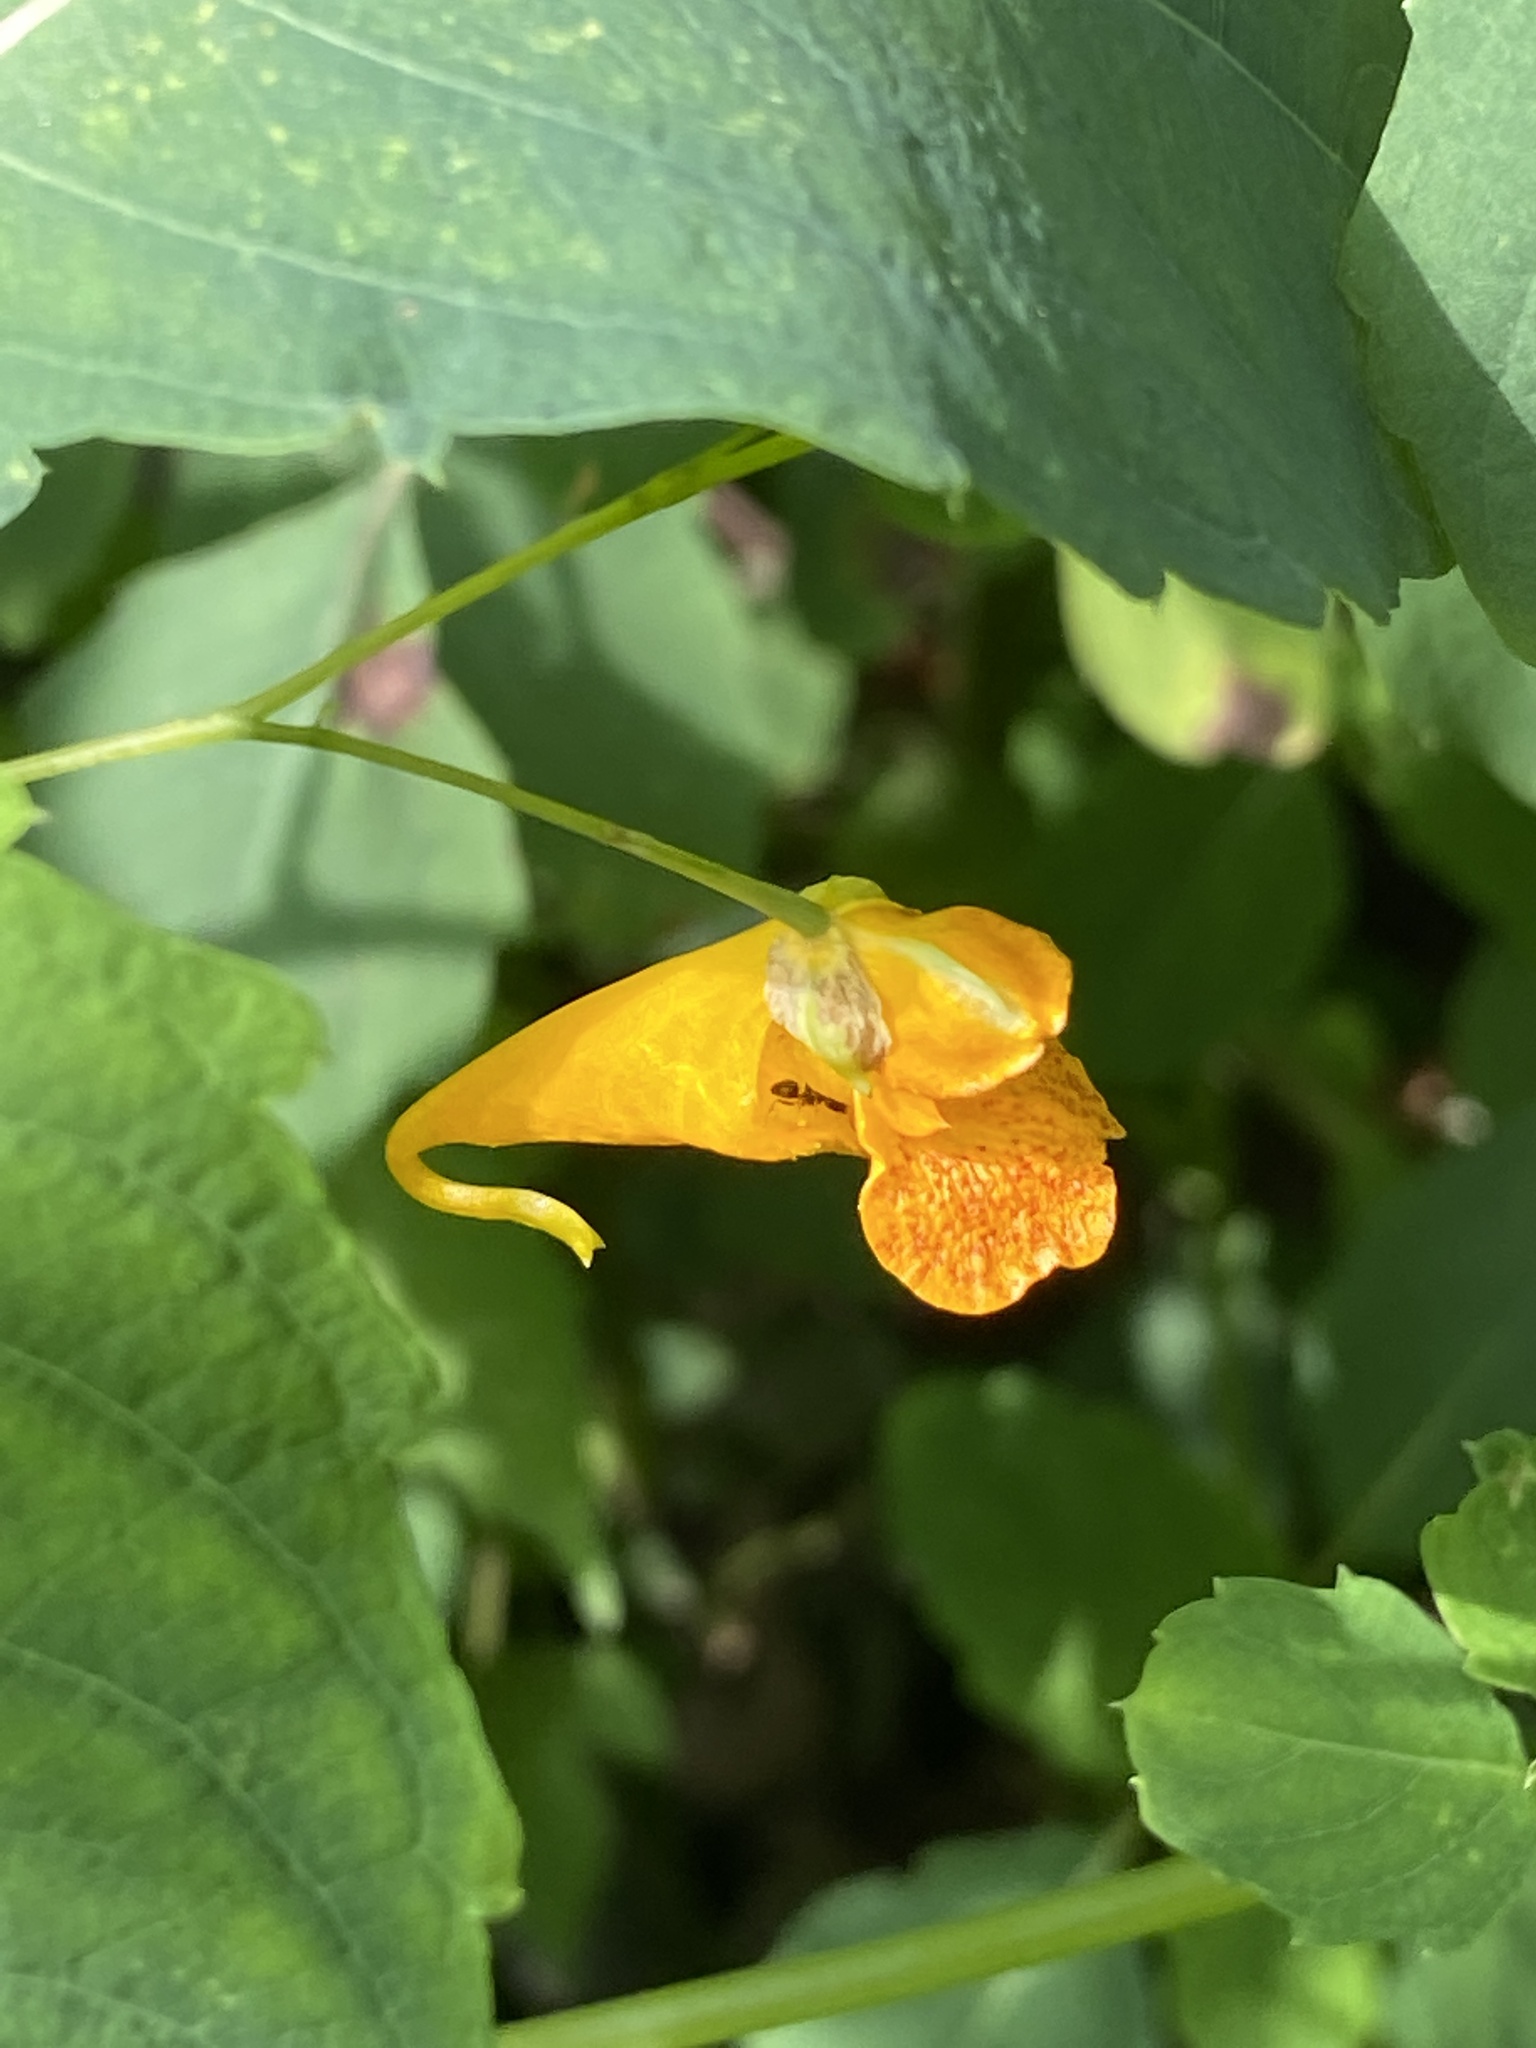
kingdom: Plantae
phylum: Tracheophyta
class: Magnoliopsida
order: Ericales
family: Balsaminaceae
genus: Impatiens
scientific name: Impatiens capensis
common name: Orange balsam
